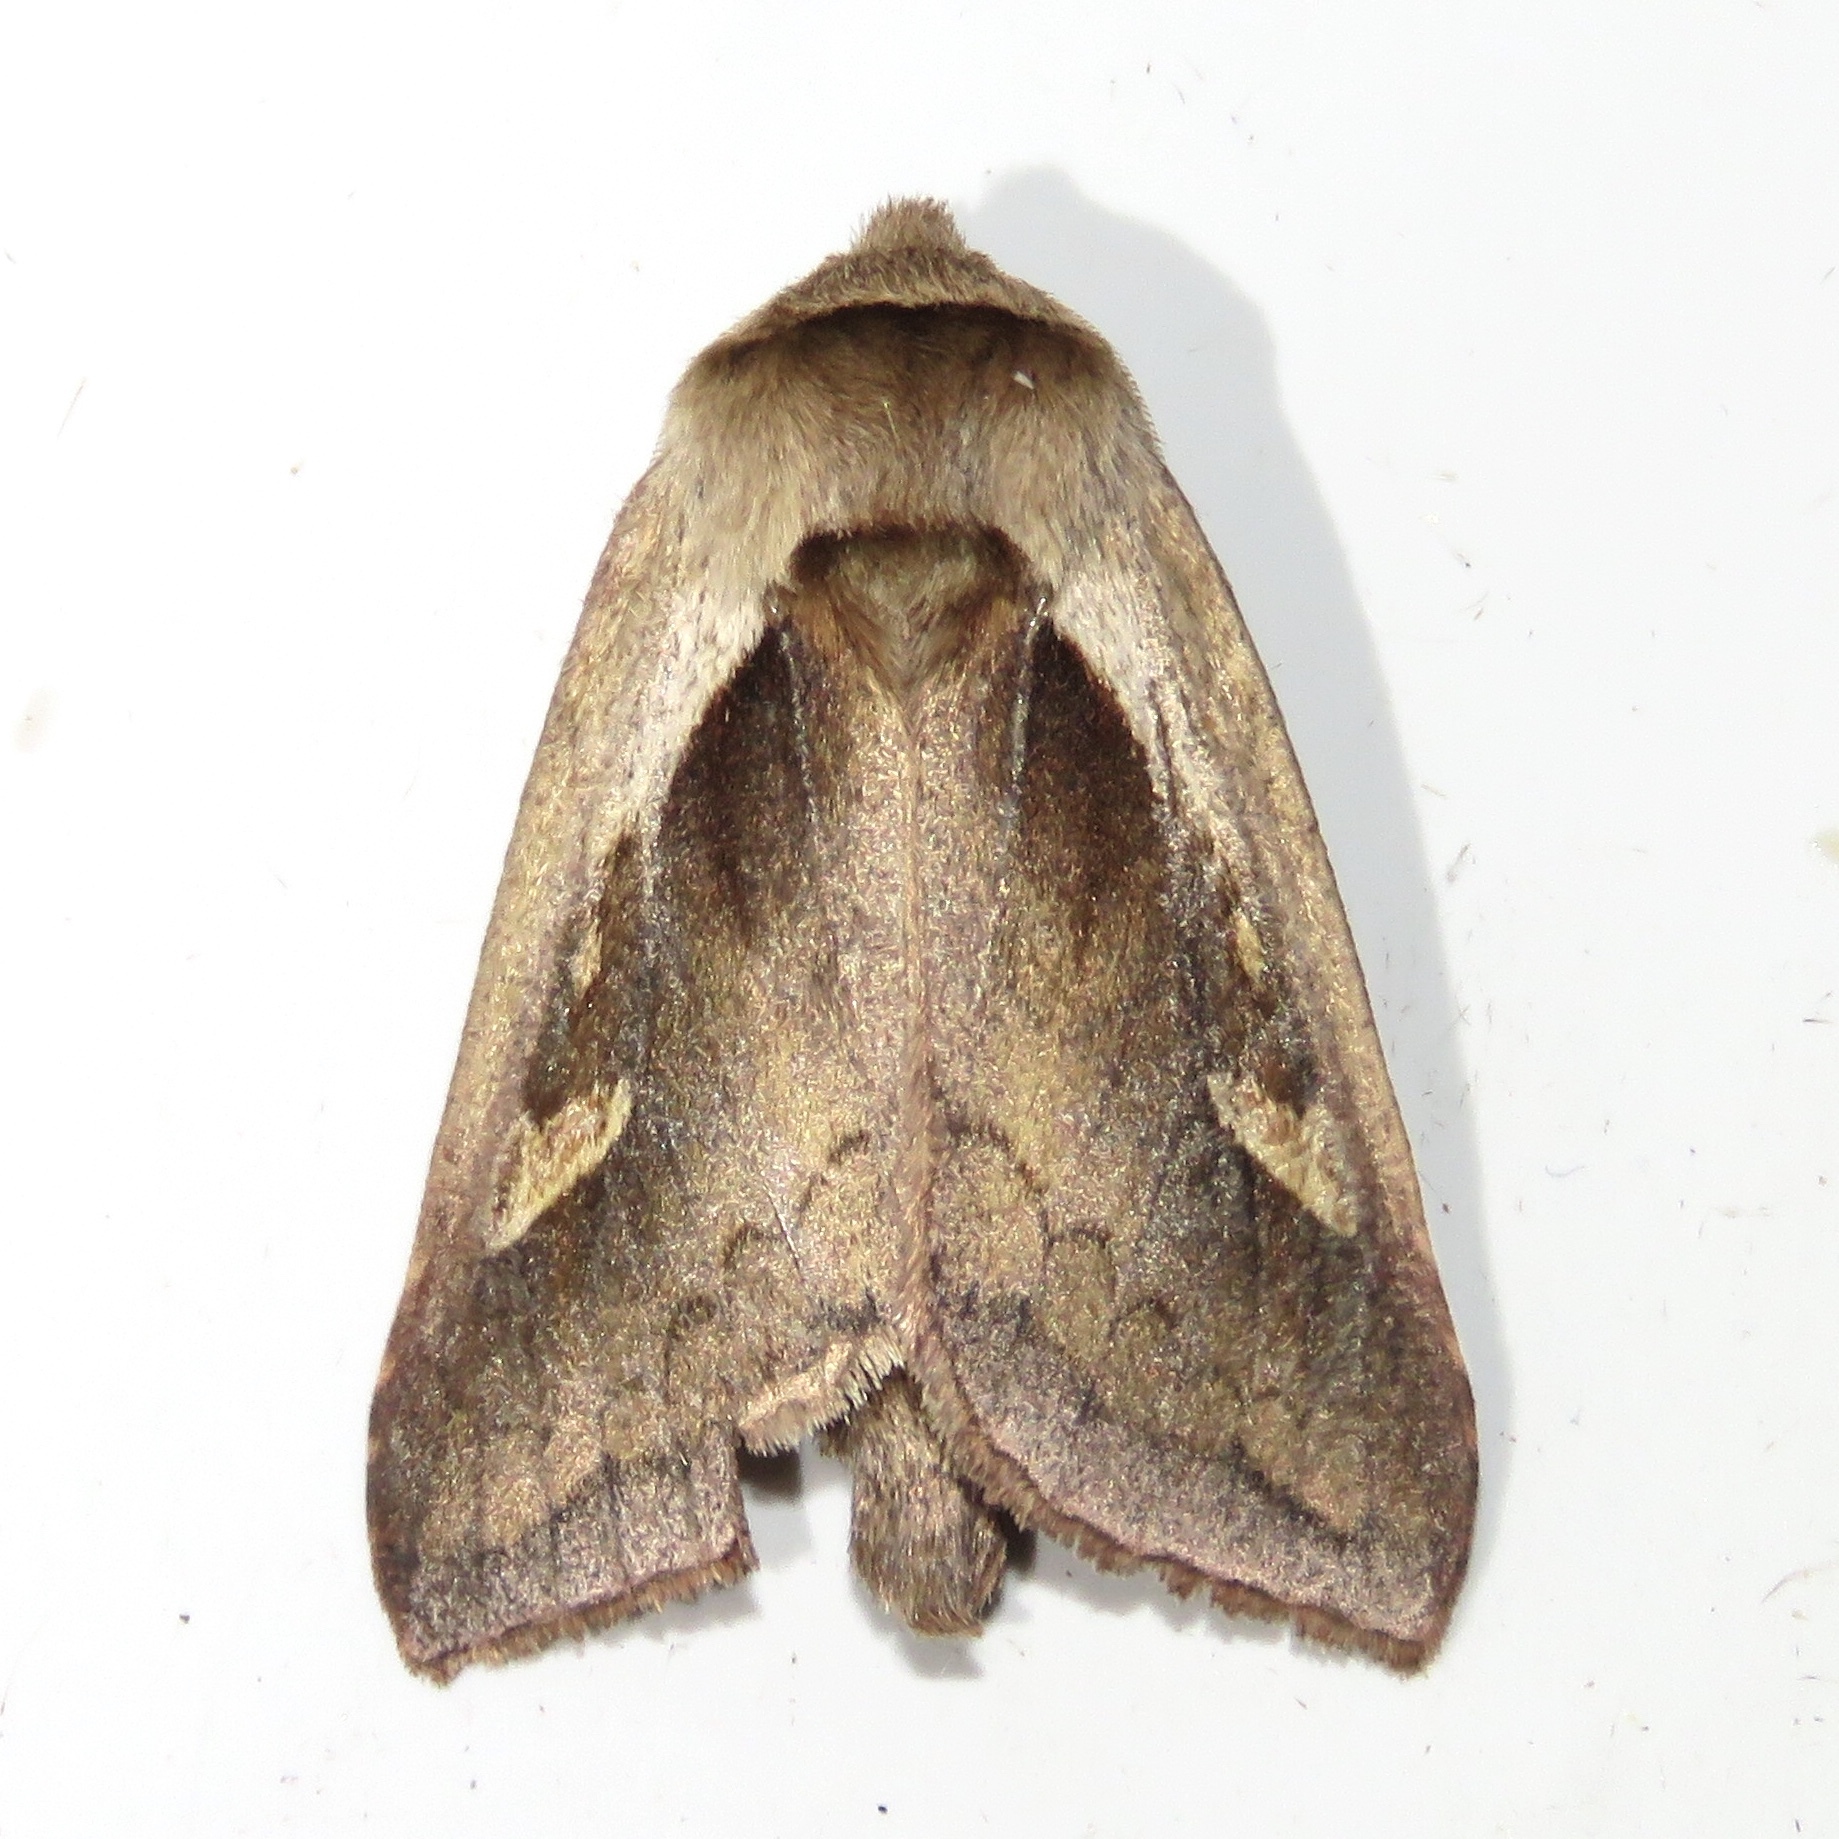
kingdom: Animalia
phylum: Arthropoda
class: Insecta
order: Lepidoptera
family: Noctuidae
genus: Bellura
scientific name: Bellura obliqua
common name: Cattail borer moth
